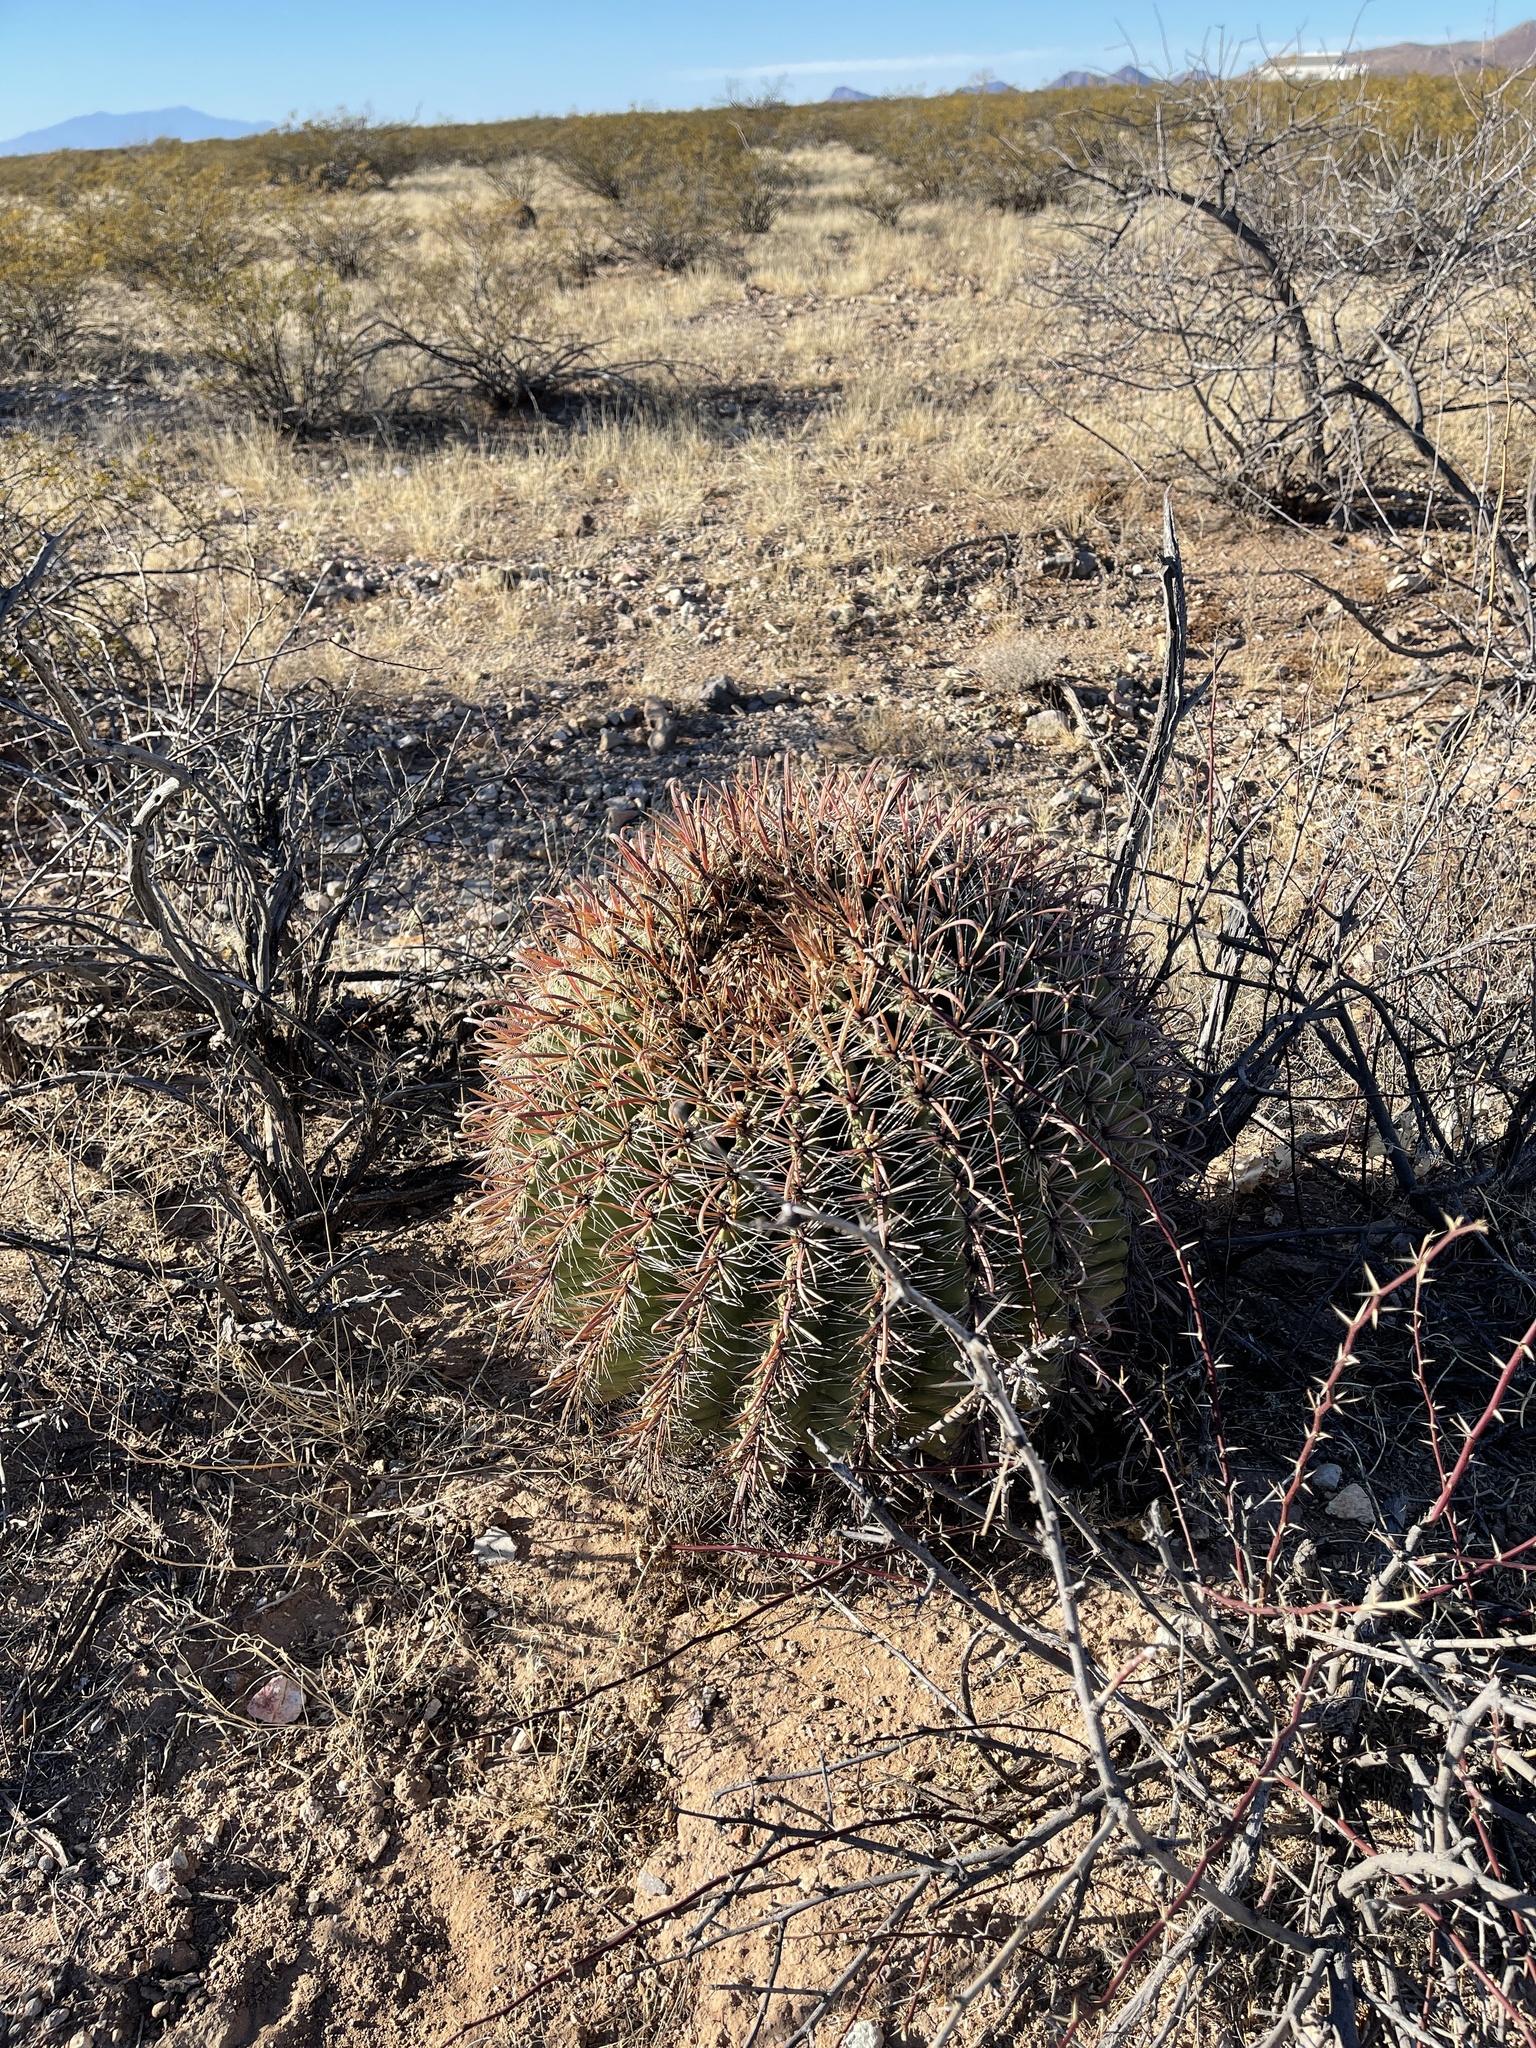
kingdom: Plantae
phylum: Tracheophyta
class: Magnoliopsida
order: Caryophyllales
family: Cactaceae
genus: Ferocactus
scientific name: Ferocactus wislizeni
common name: Candy barrel cactus
